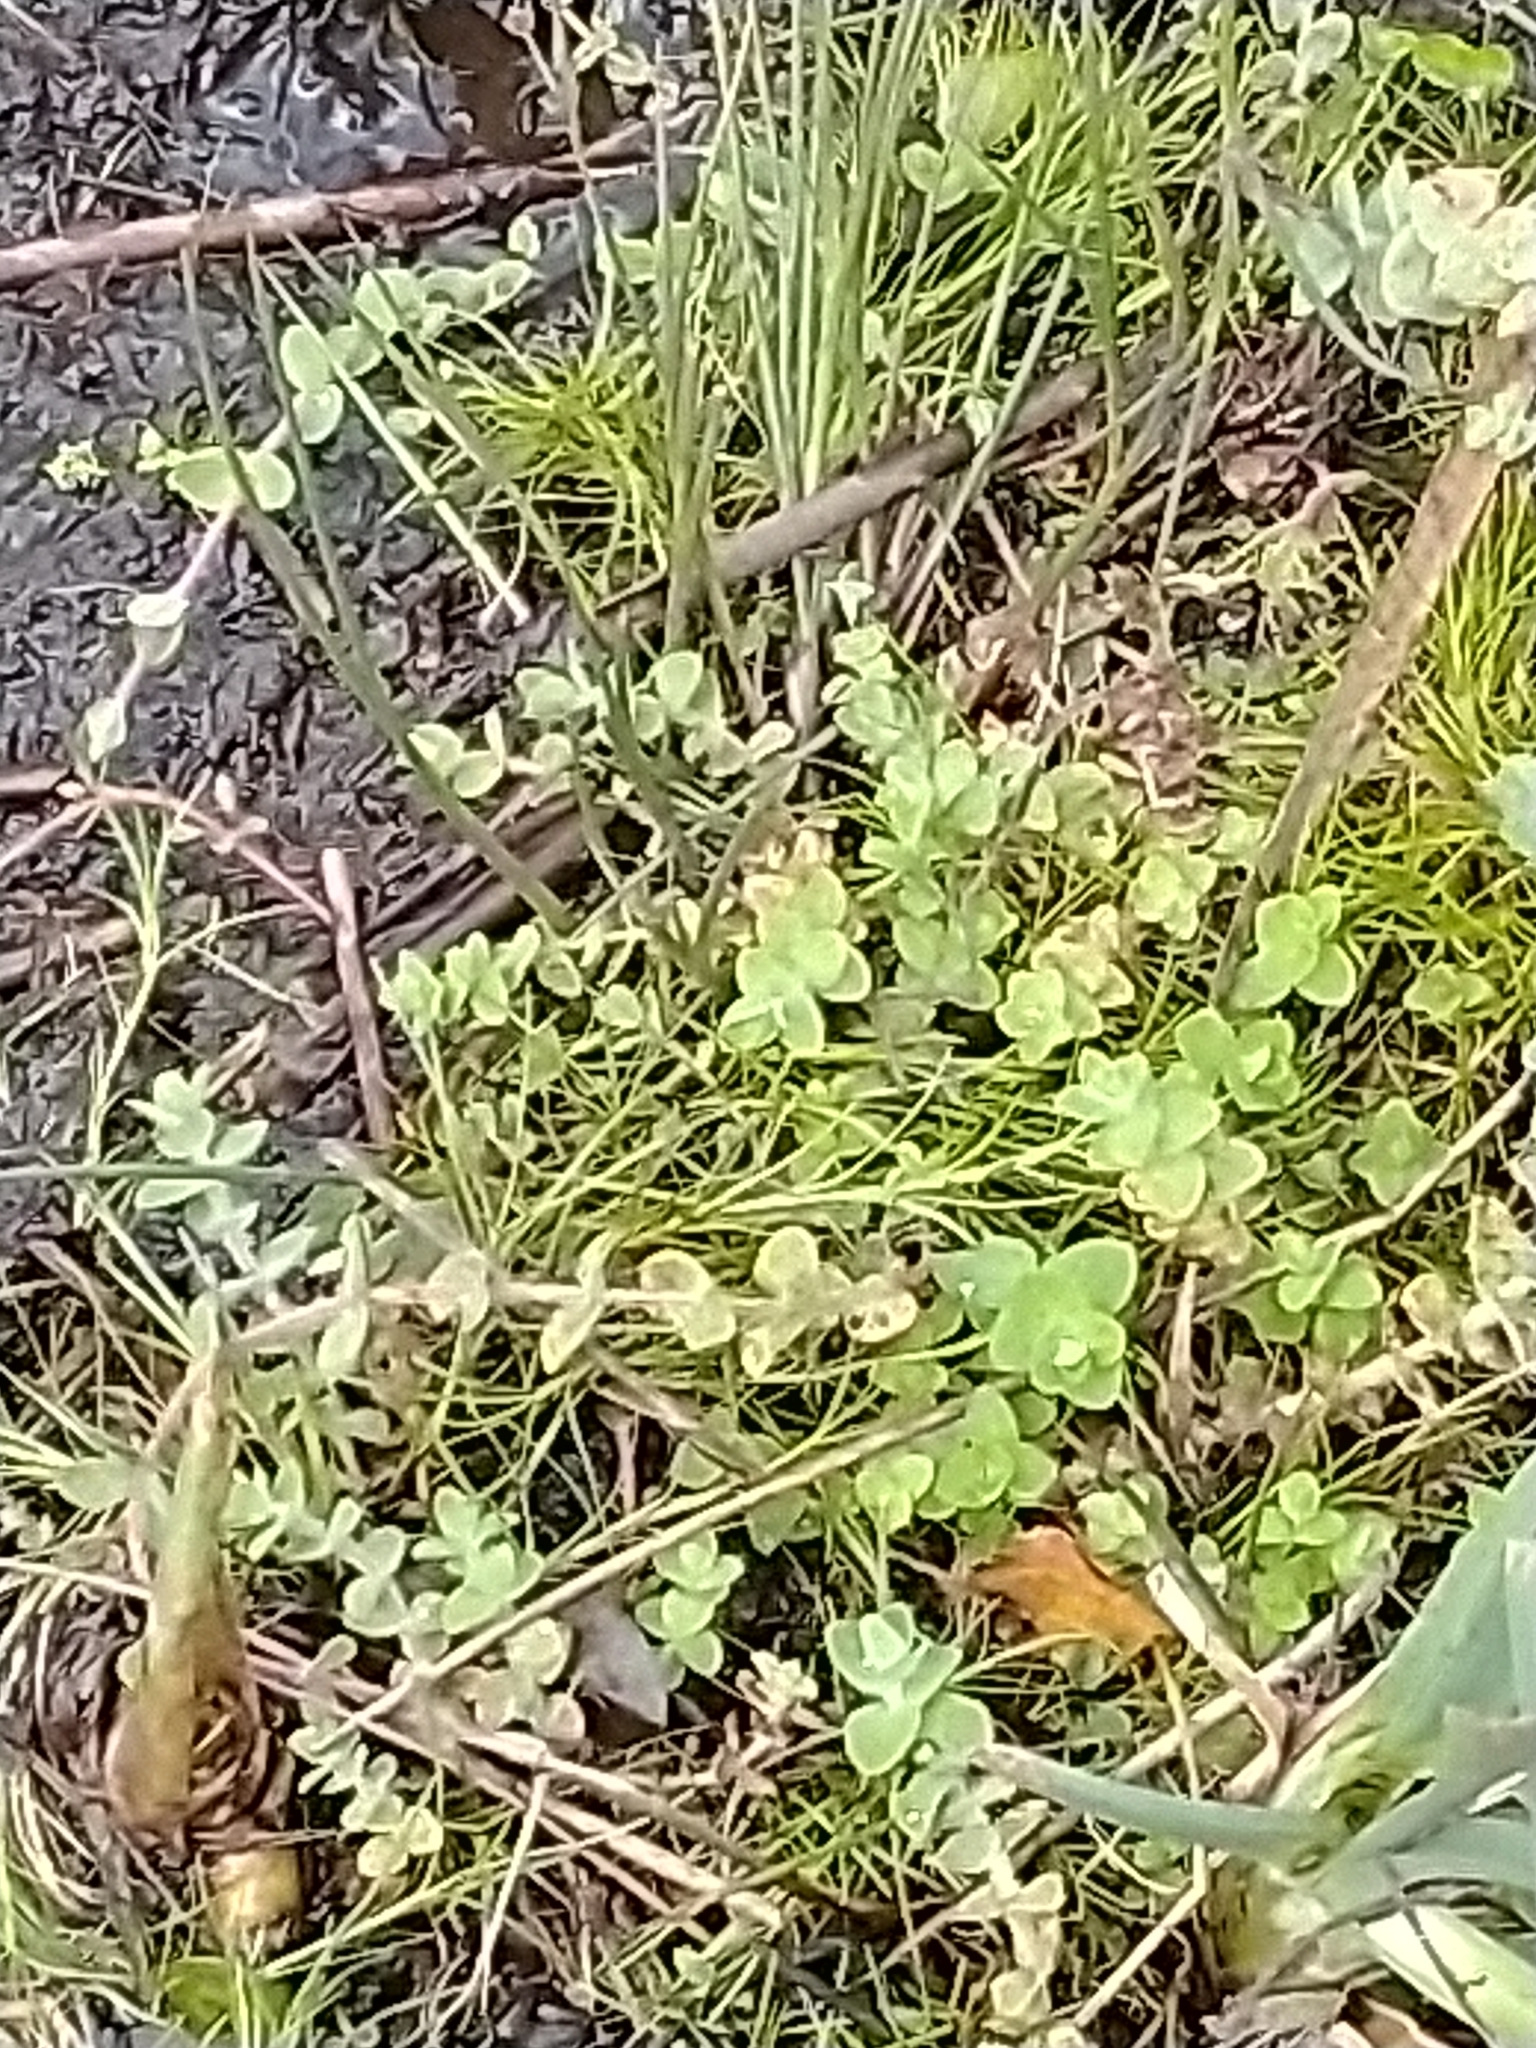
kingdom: Plantae
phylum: Tracheophyta
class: Magnoliopsida
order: Malpighiales
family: Hypericaceae
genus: Hypericum
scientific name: Hypericum elodes
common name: Marsh st. john's-wort
